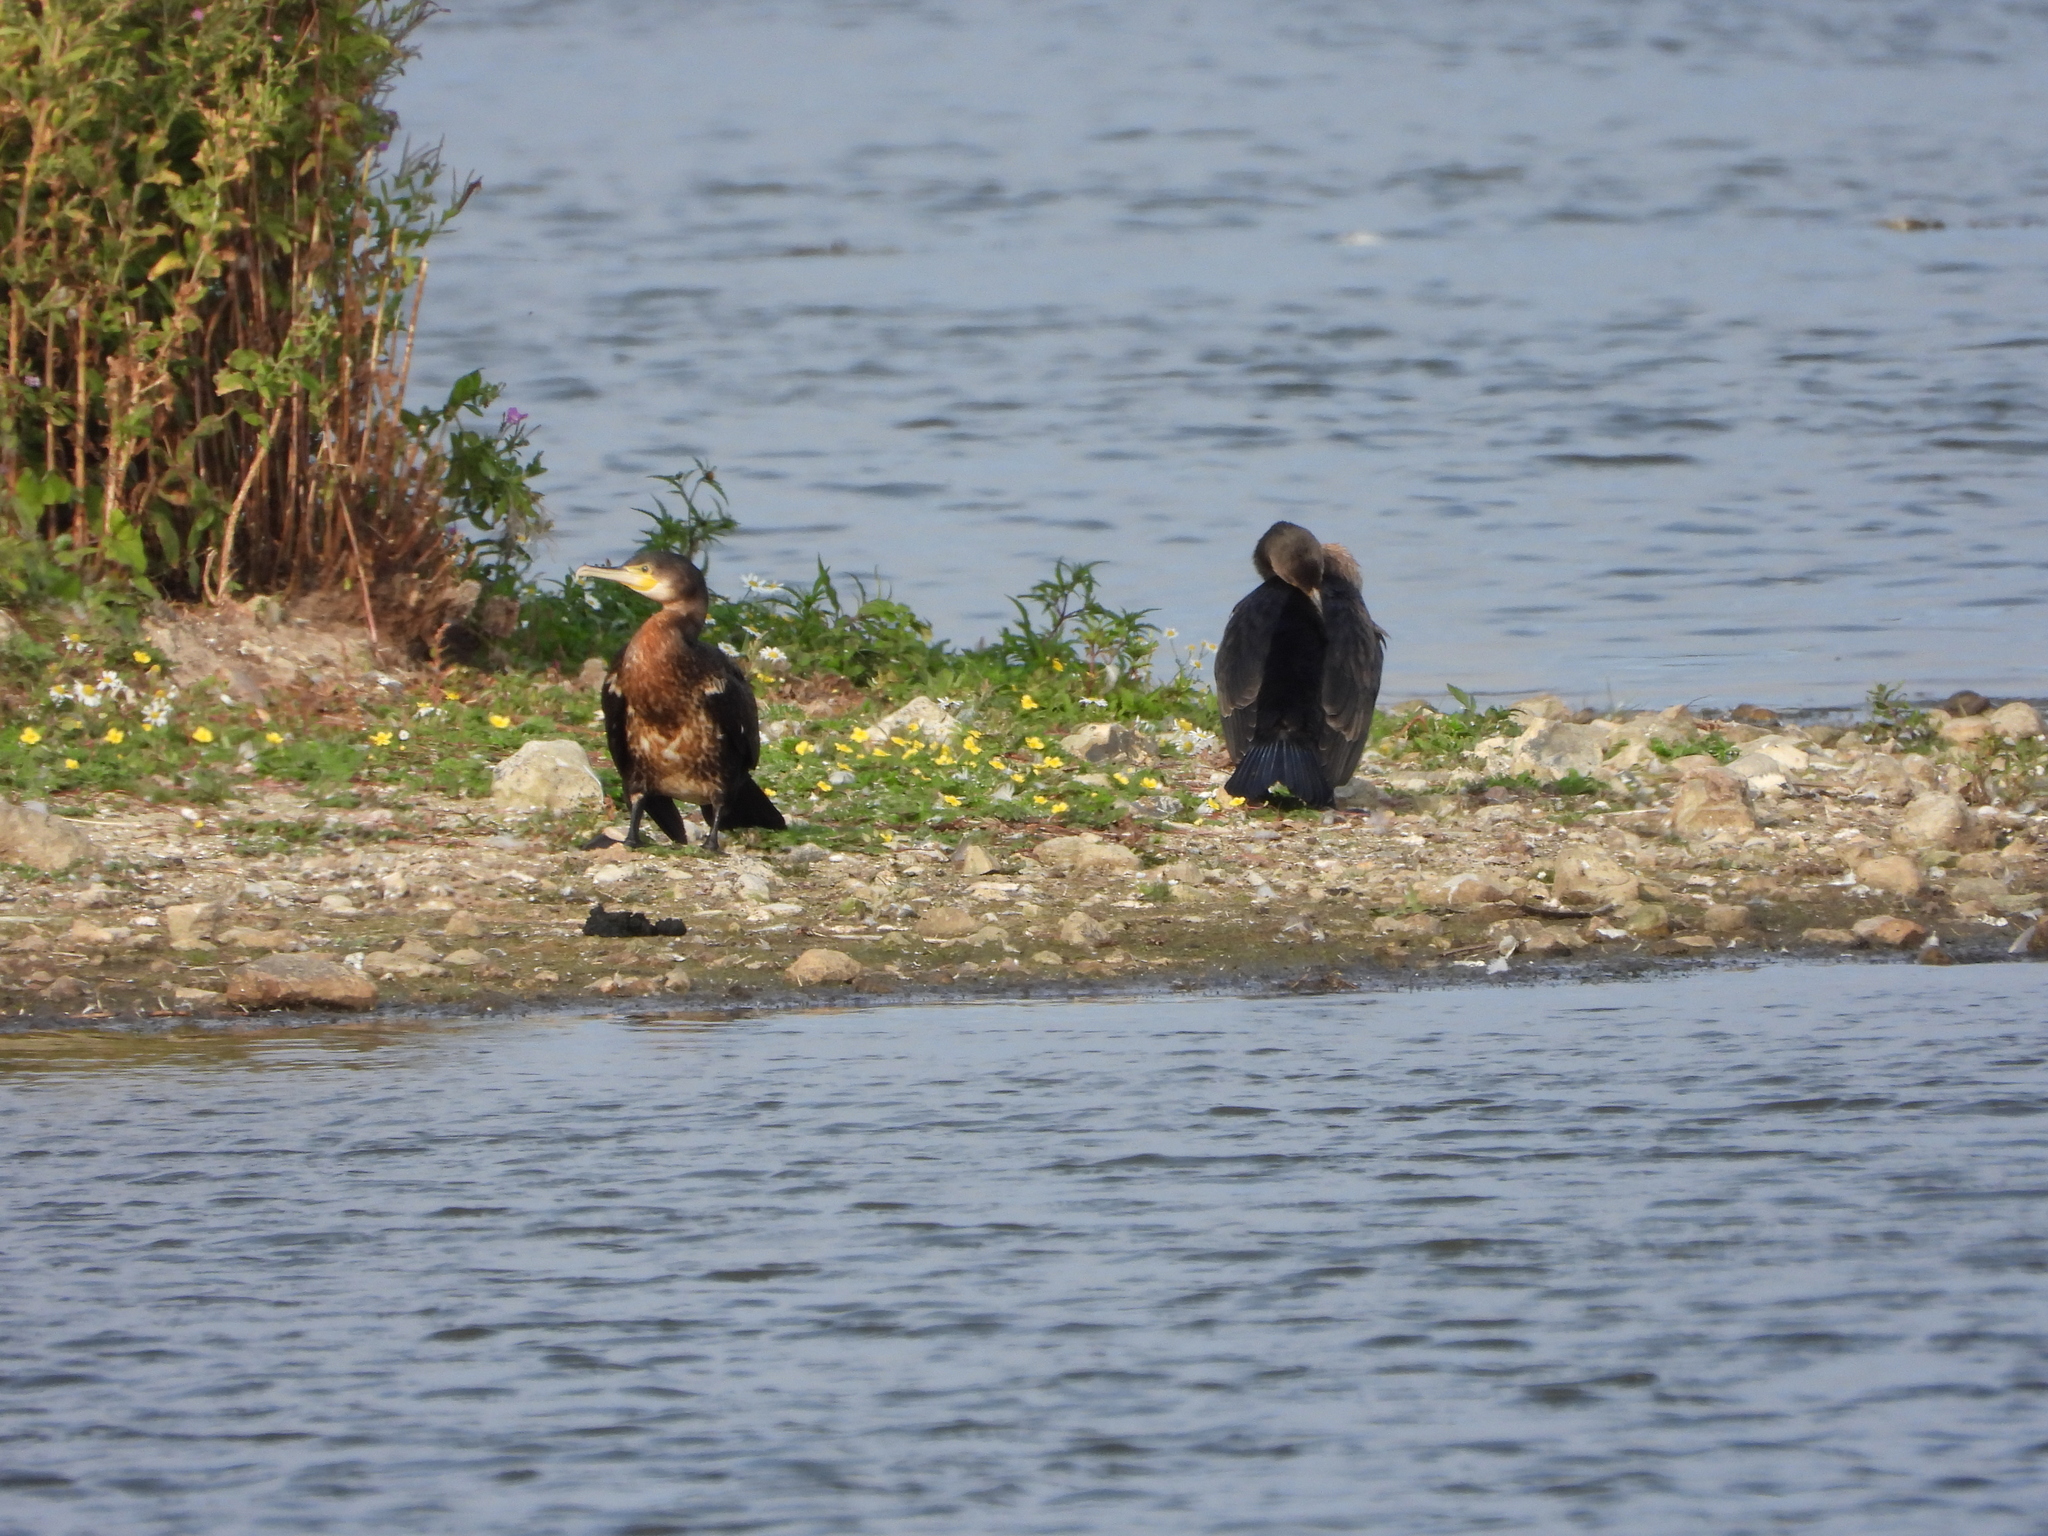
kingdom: Animalia
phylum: Chordata
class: Aves
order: Suliformes
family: Phalacrocoracidae
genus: Phalacrocorax
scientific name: Phalacrocorax carbo
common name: Great cormorant
